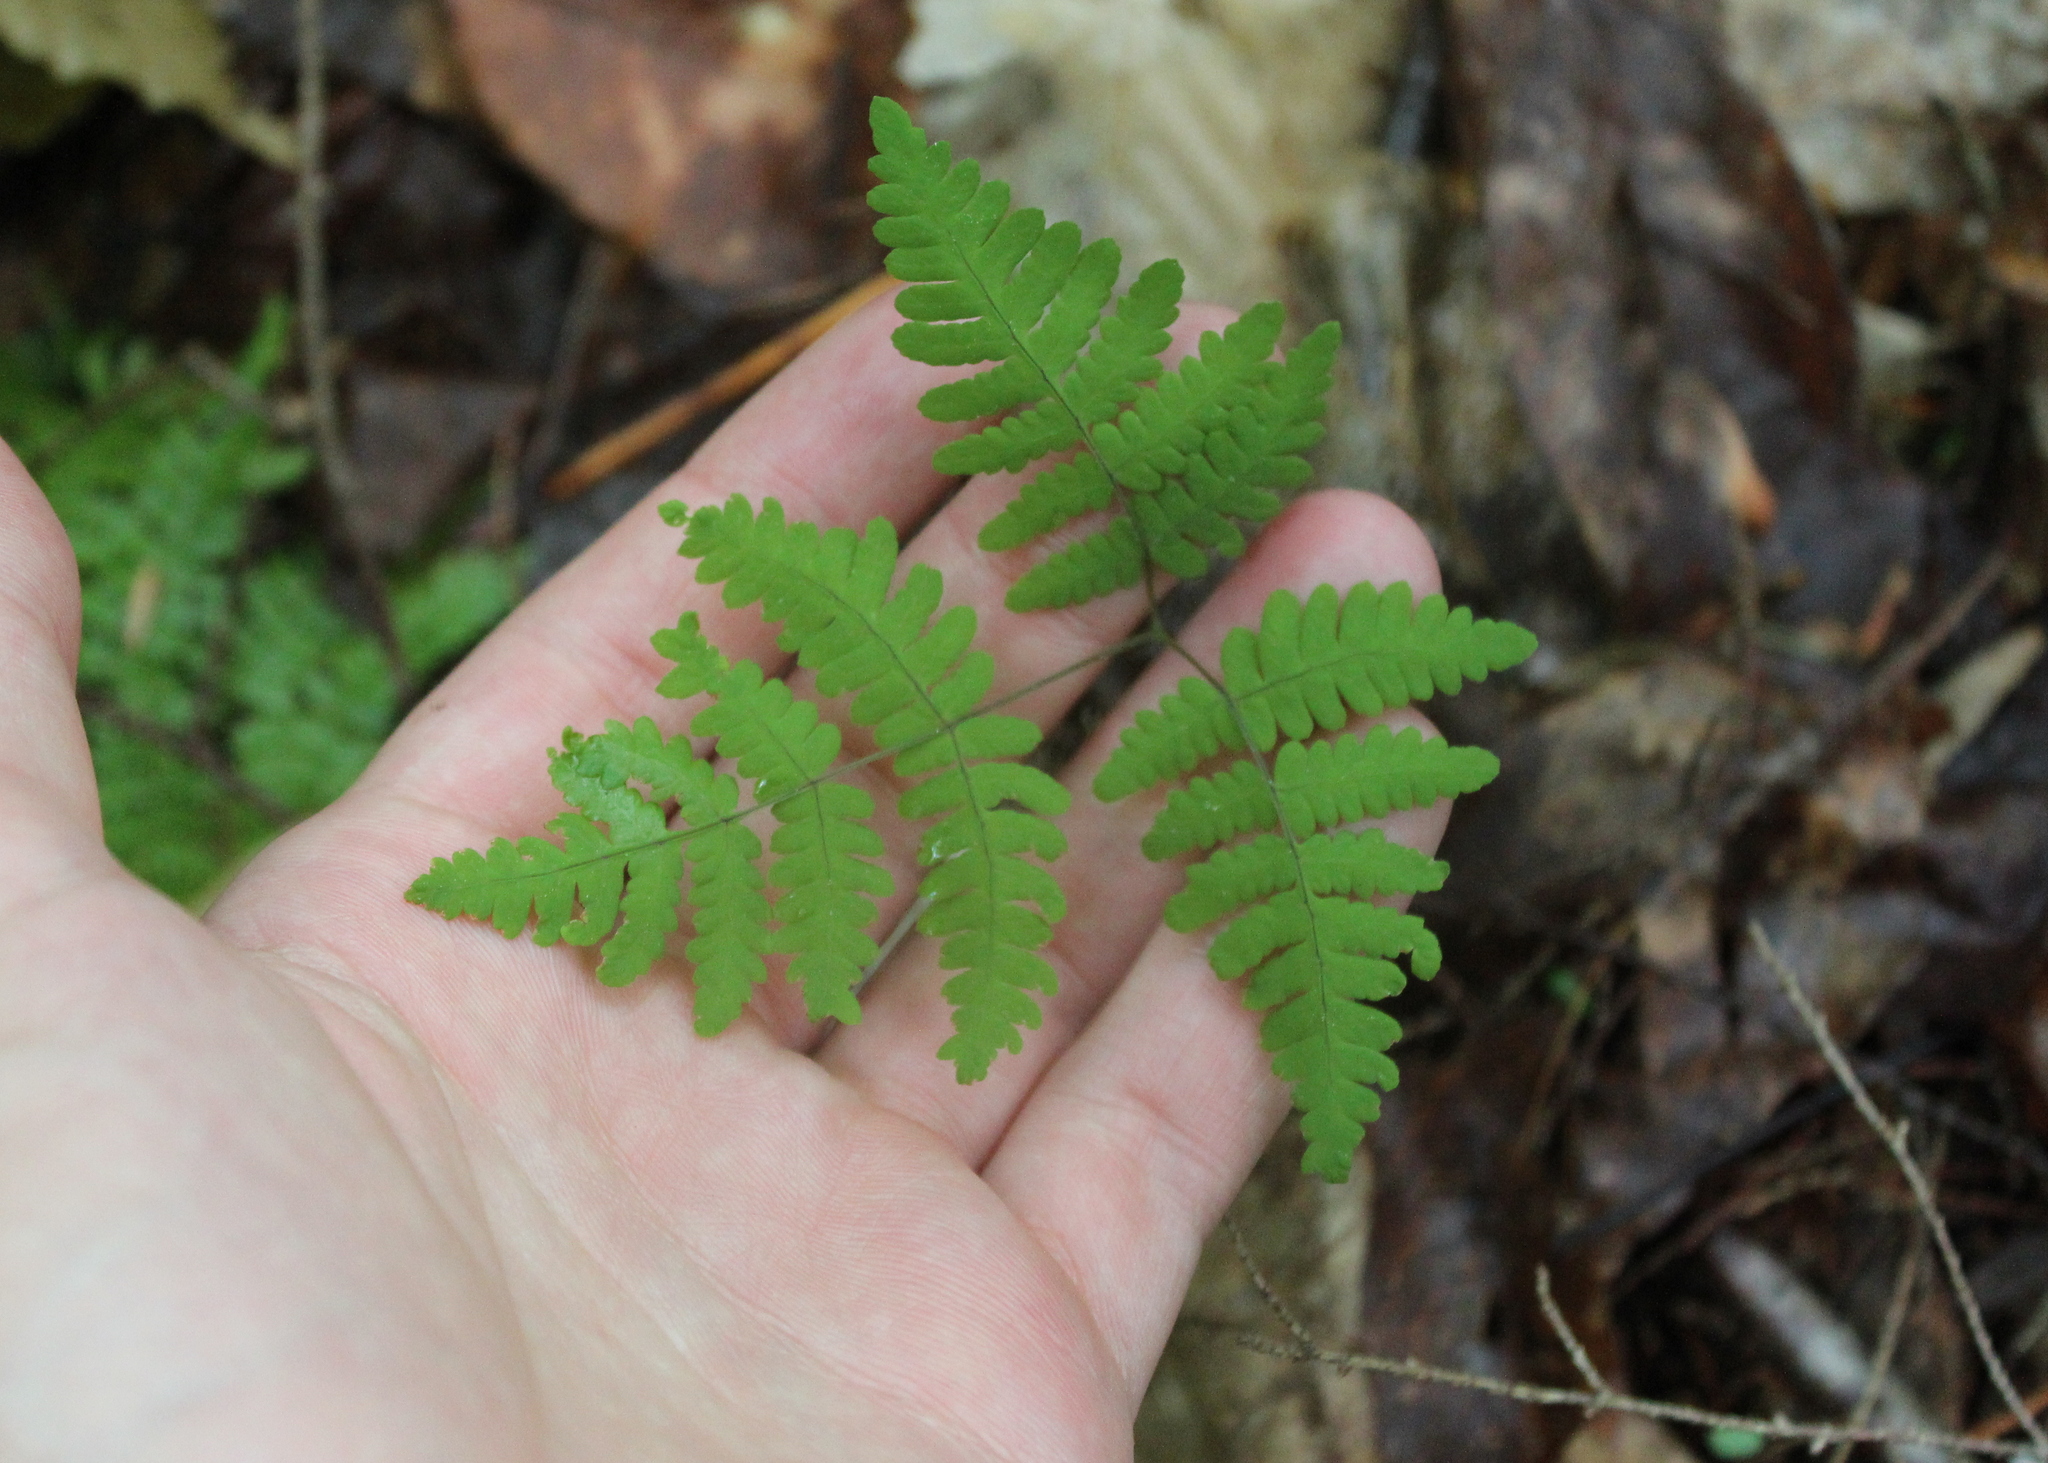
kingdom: Plantae
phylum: Tracheophyta
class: Polypodiopsida
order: Polypodiales
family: Cystopteridaceae
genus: Gymnocarpium
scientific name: Gymnocarpium dryopteris
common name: Oak fern
